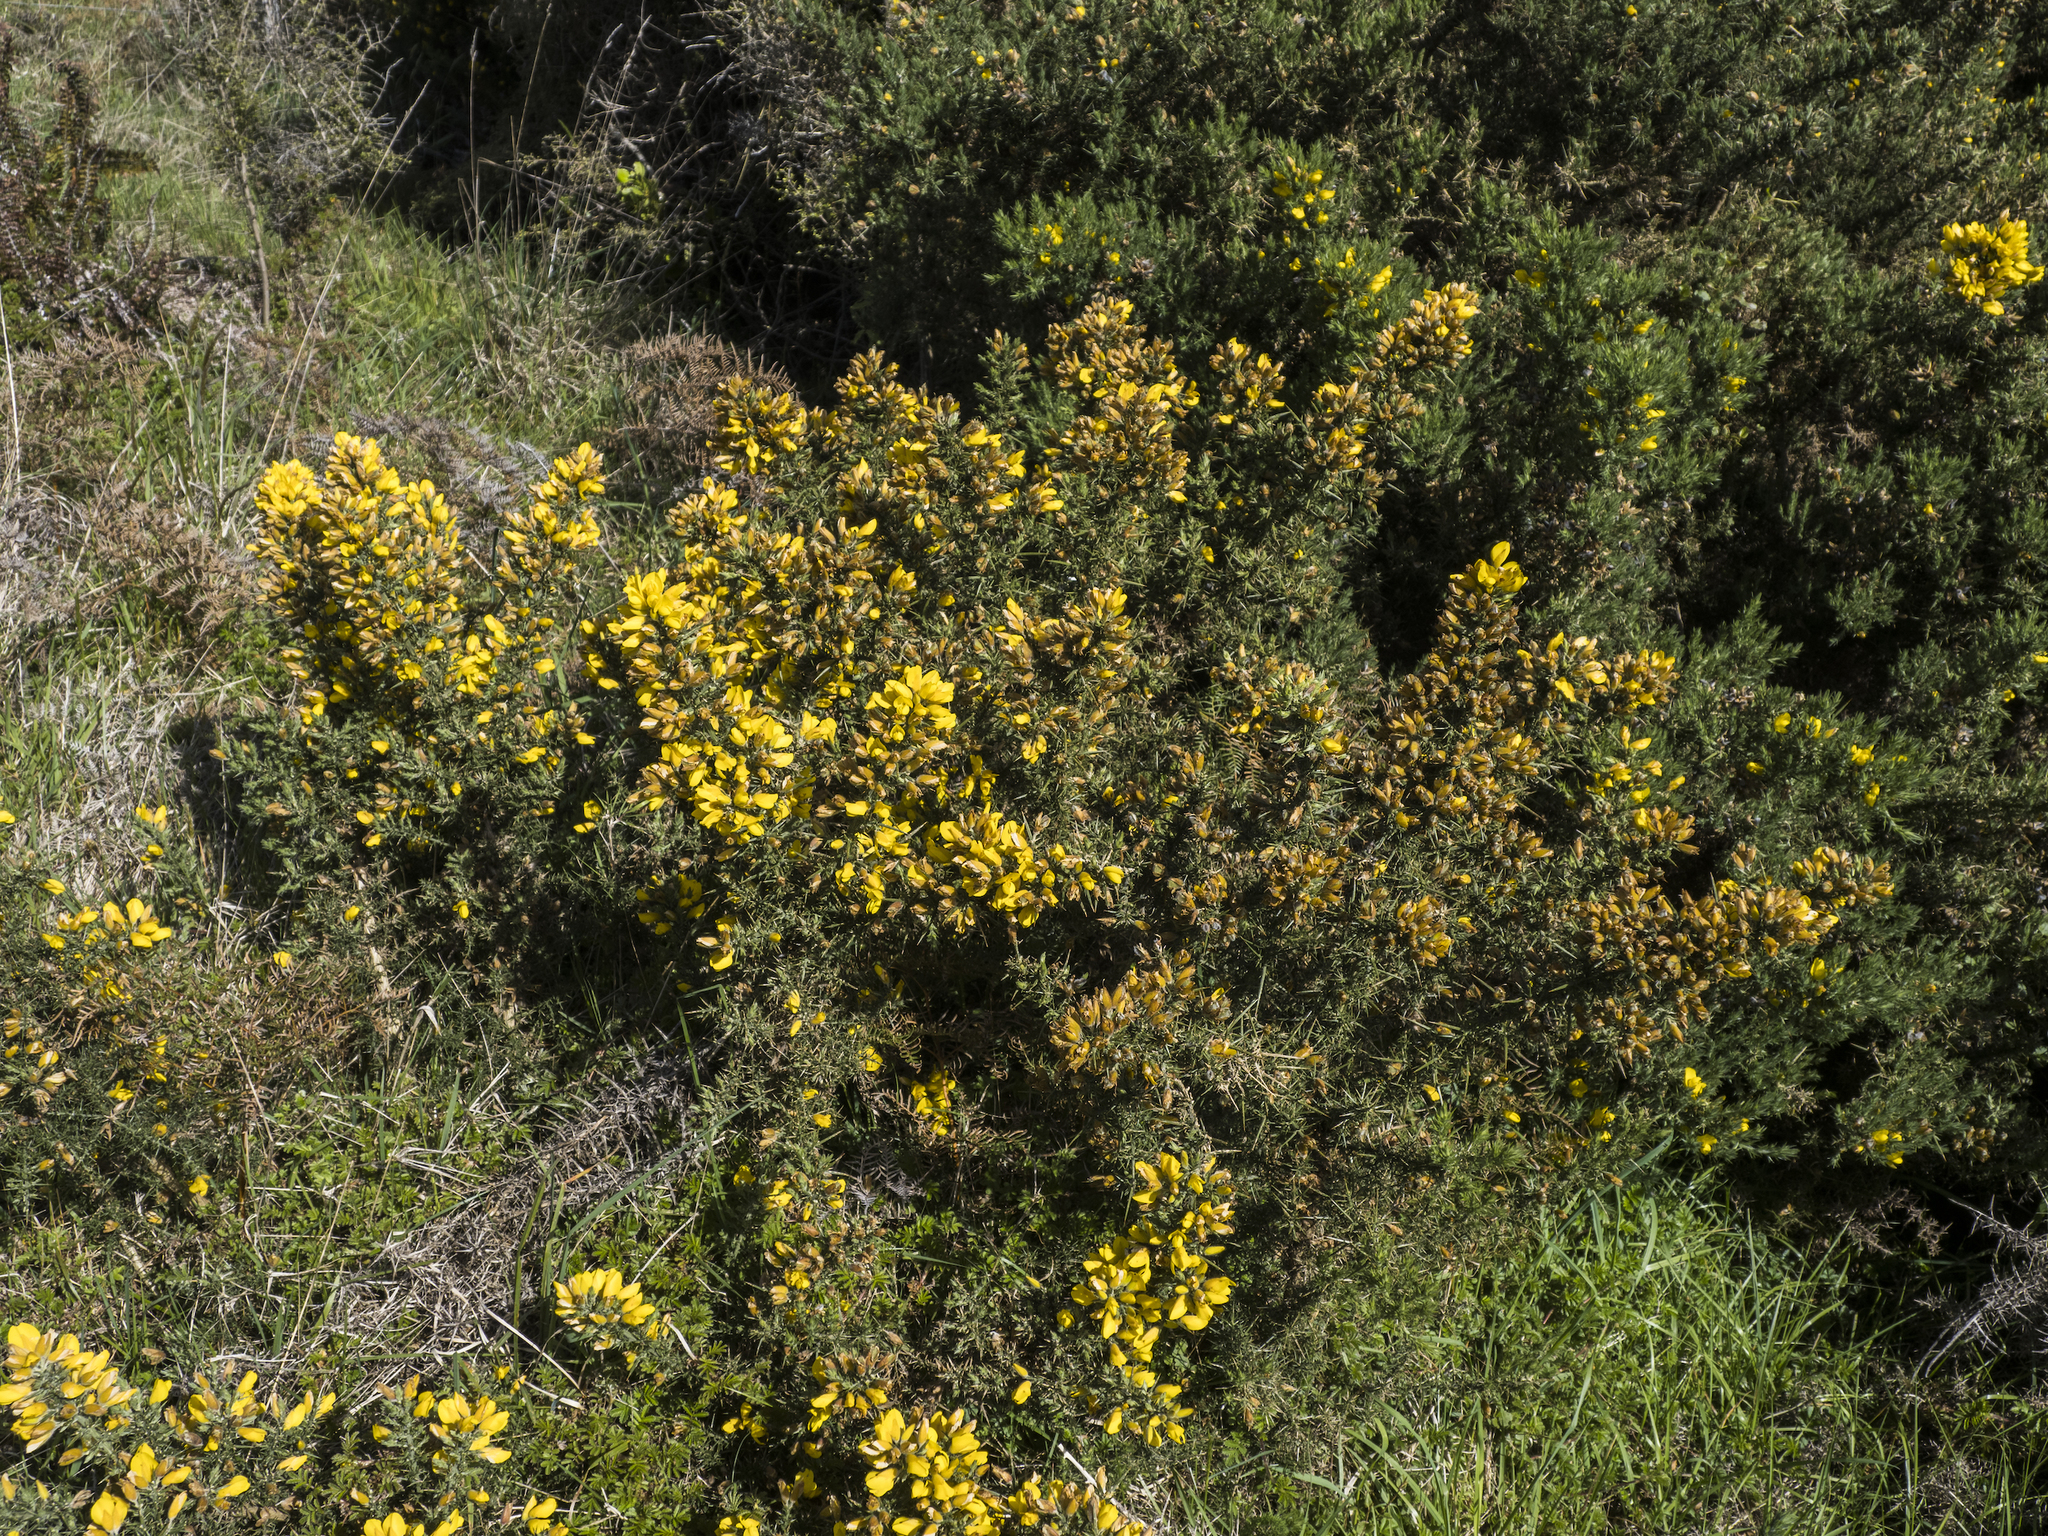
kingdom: Plantae
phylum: Tracheophyta
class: Magnoliopsida
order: Fabales
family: Fabaceae
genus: Ulex
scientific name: Ulex europaeus
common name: Common gorse
